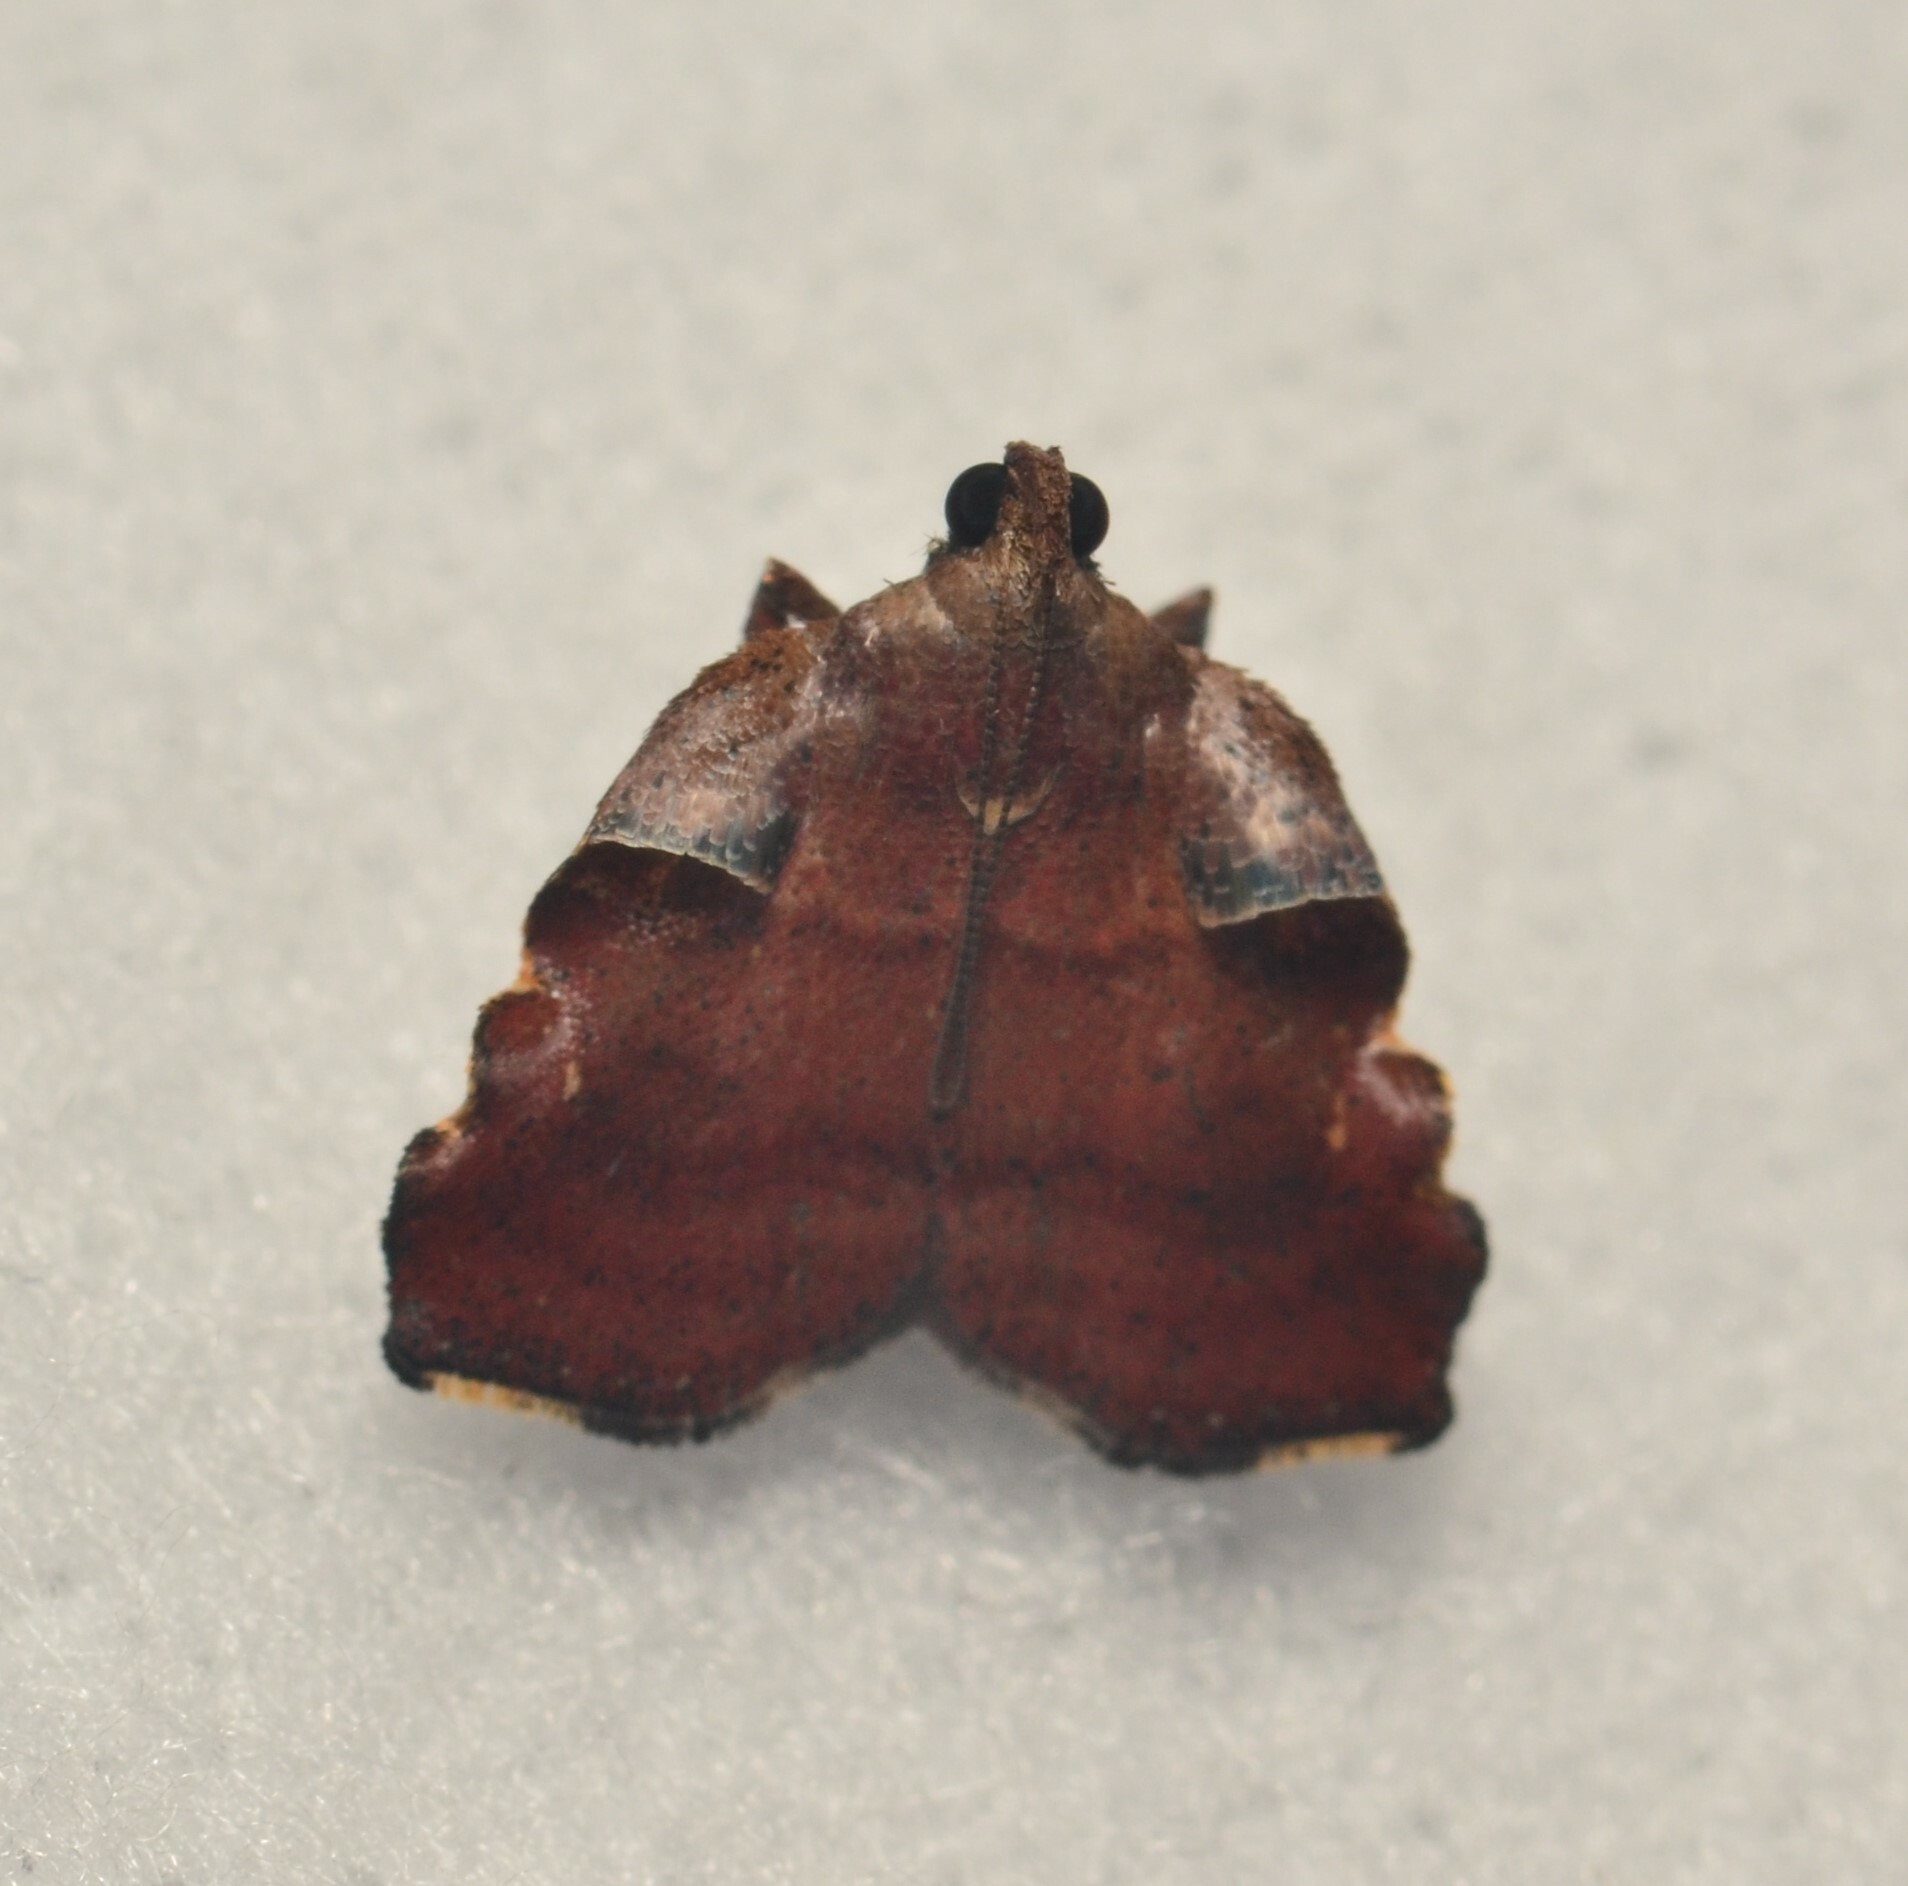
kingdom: Animalia
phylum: Arthropoda
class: Insecta
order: Lepidoptera
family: Pyralidae
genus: Salobrena
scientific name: Salobrena sincera
